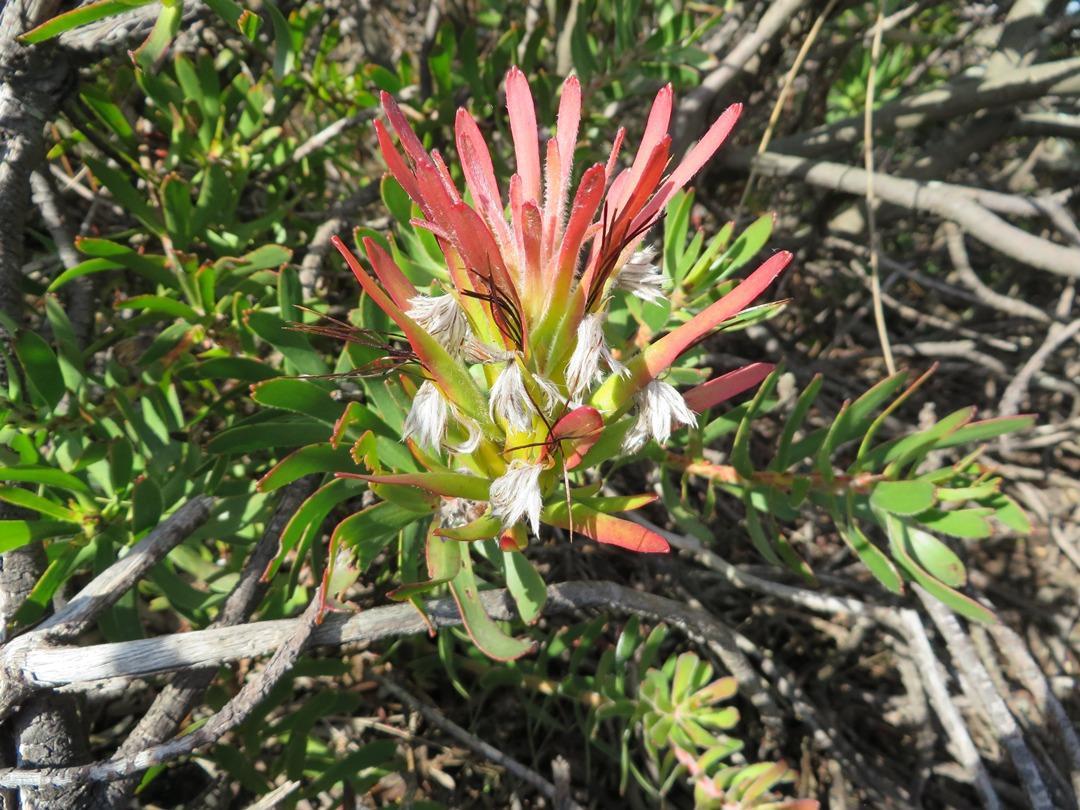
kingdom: Plantae
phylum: Tracheophyta
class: Magnoliopsida
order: Proteales
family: Proteaceae
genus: Mimetes
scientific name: Mimetes cucullatus
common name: Common pagoda
